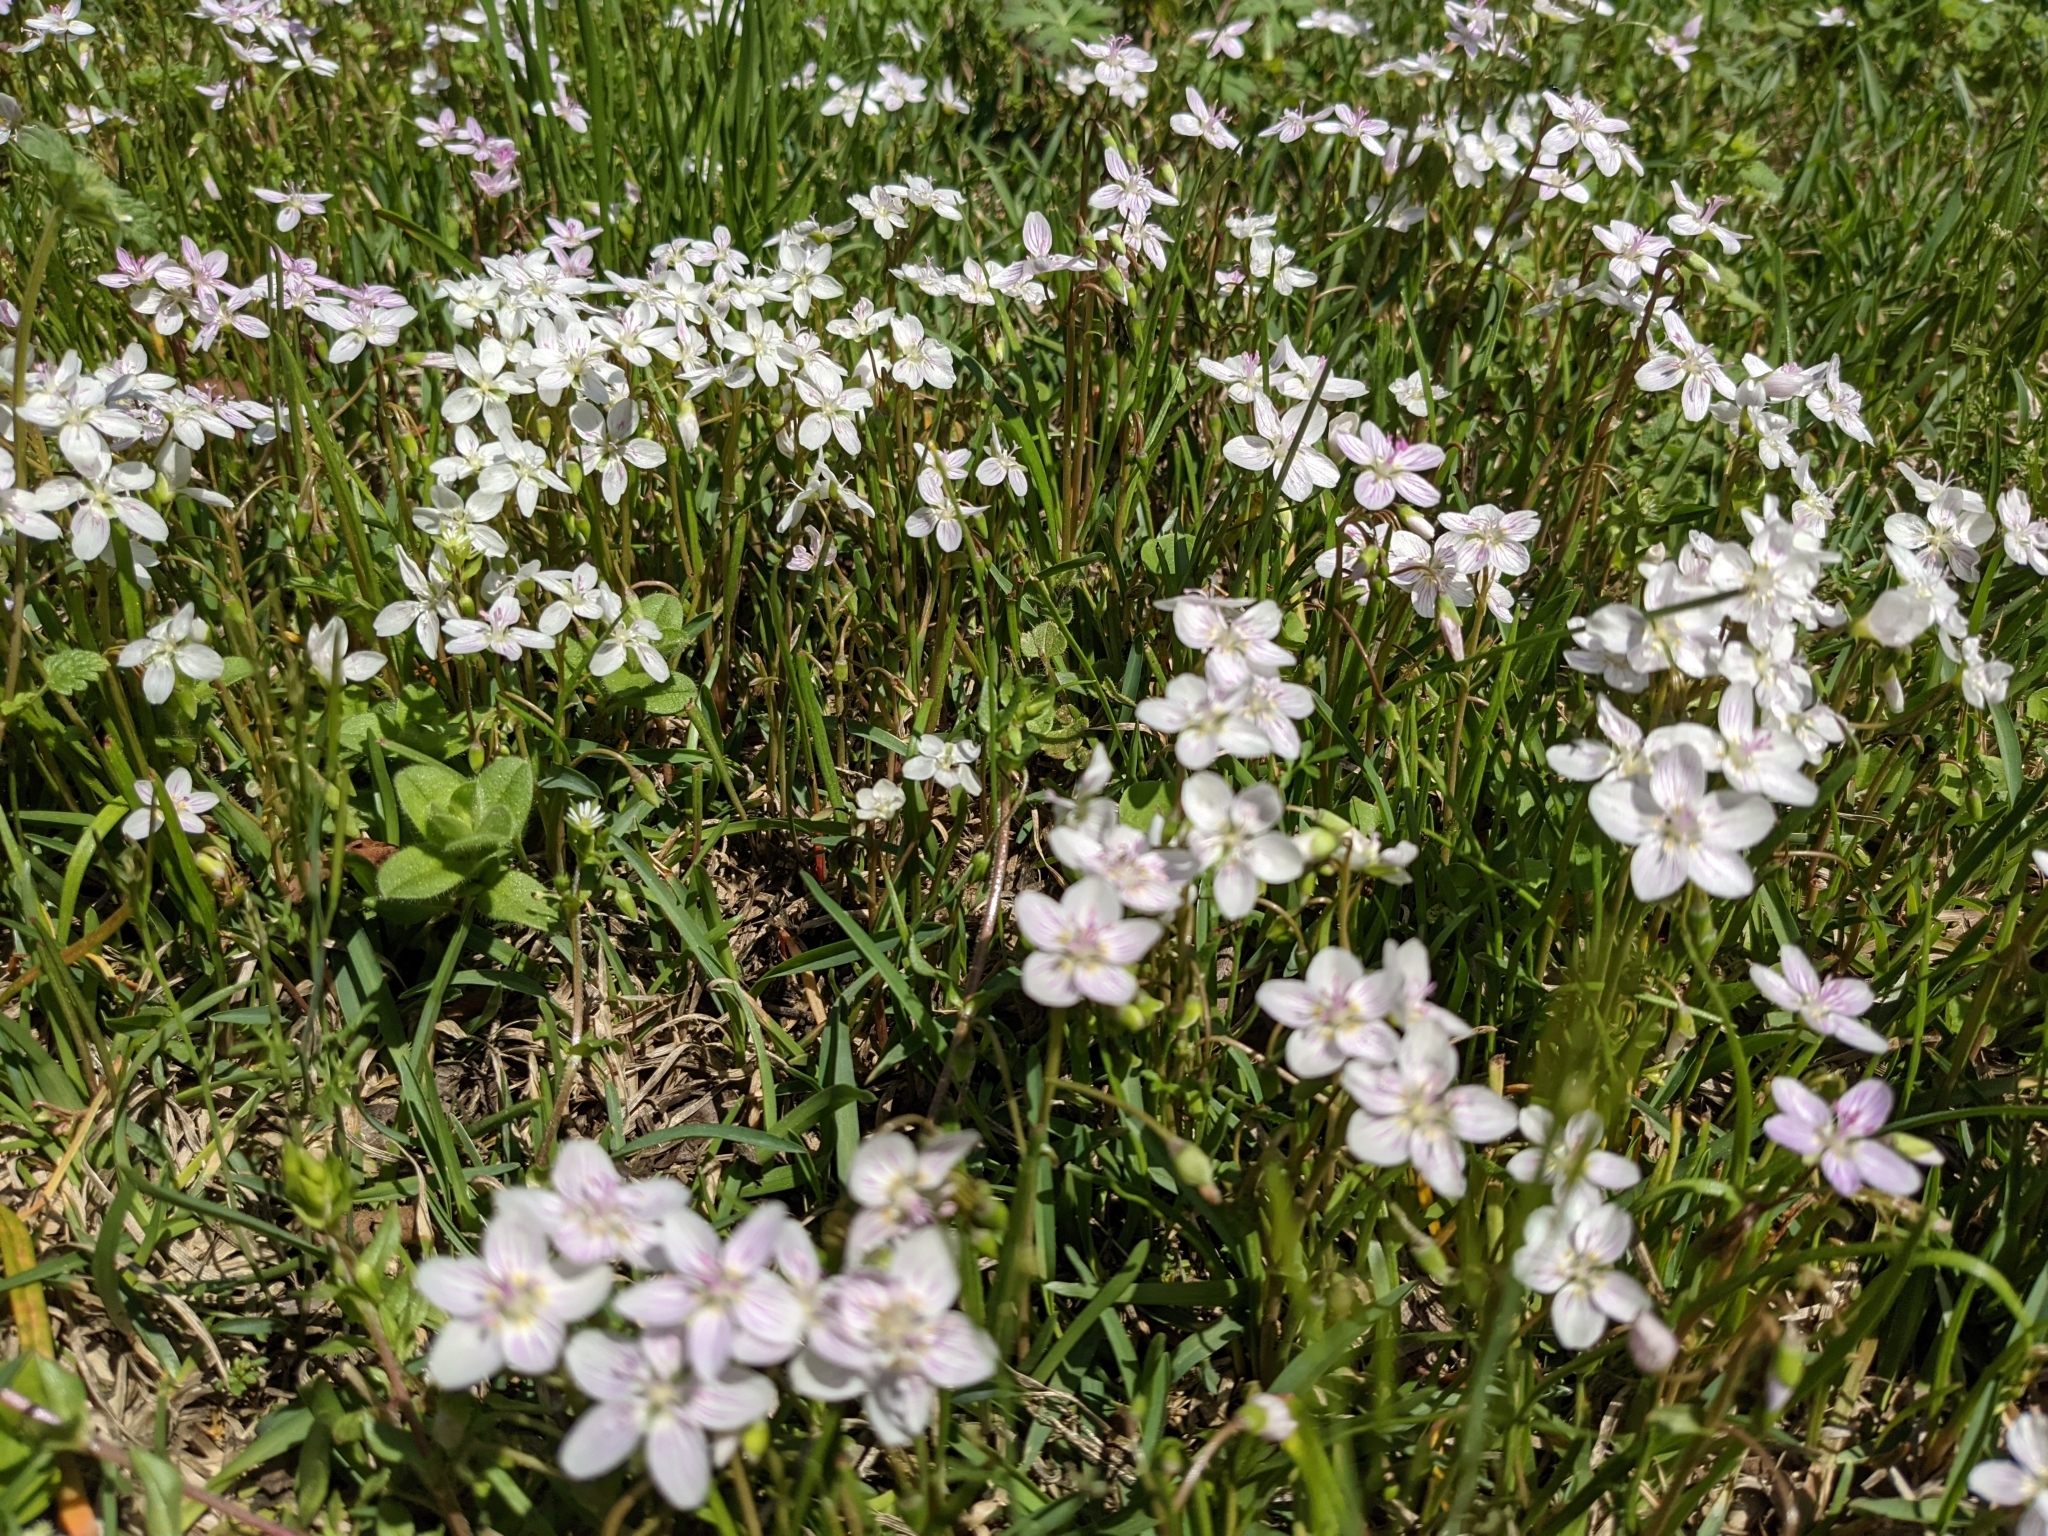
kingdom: Plantae
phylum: Tracheophyta
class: Magnoliopsida
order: Caryophyllales
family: Montiaceae
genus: Claytonia
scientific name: Claytonia virginica
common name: Virginia springbeauty
